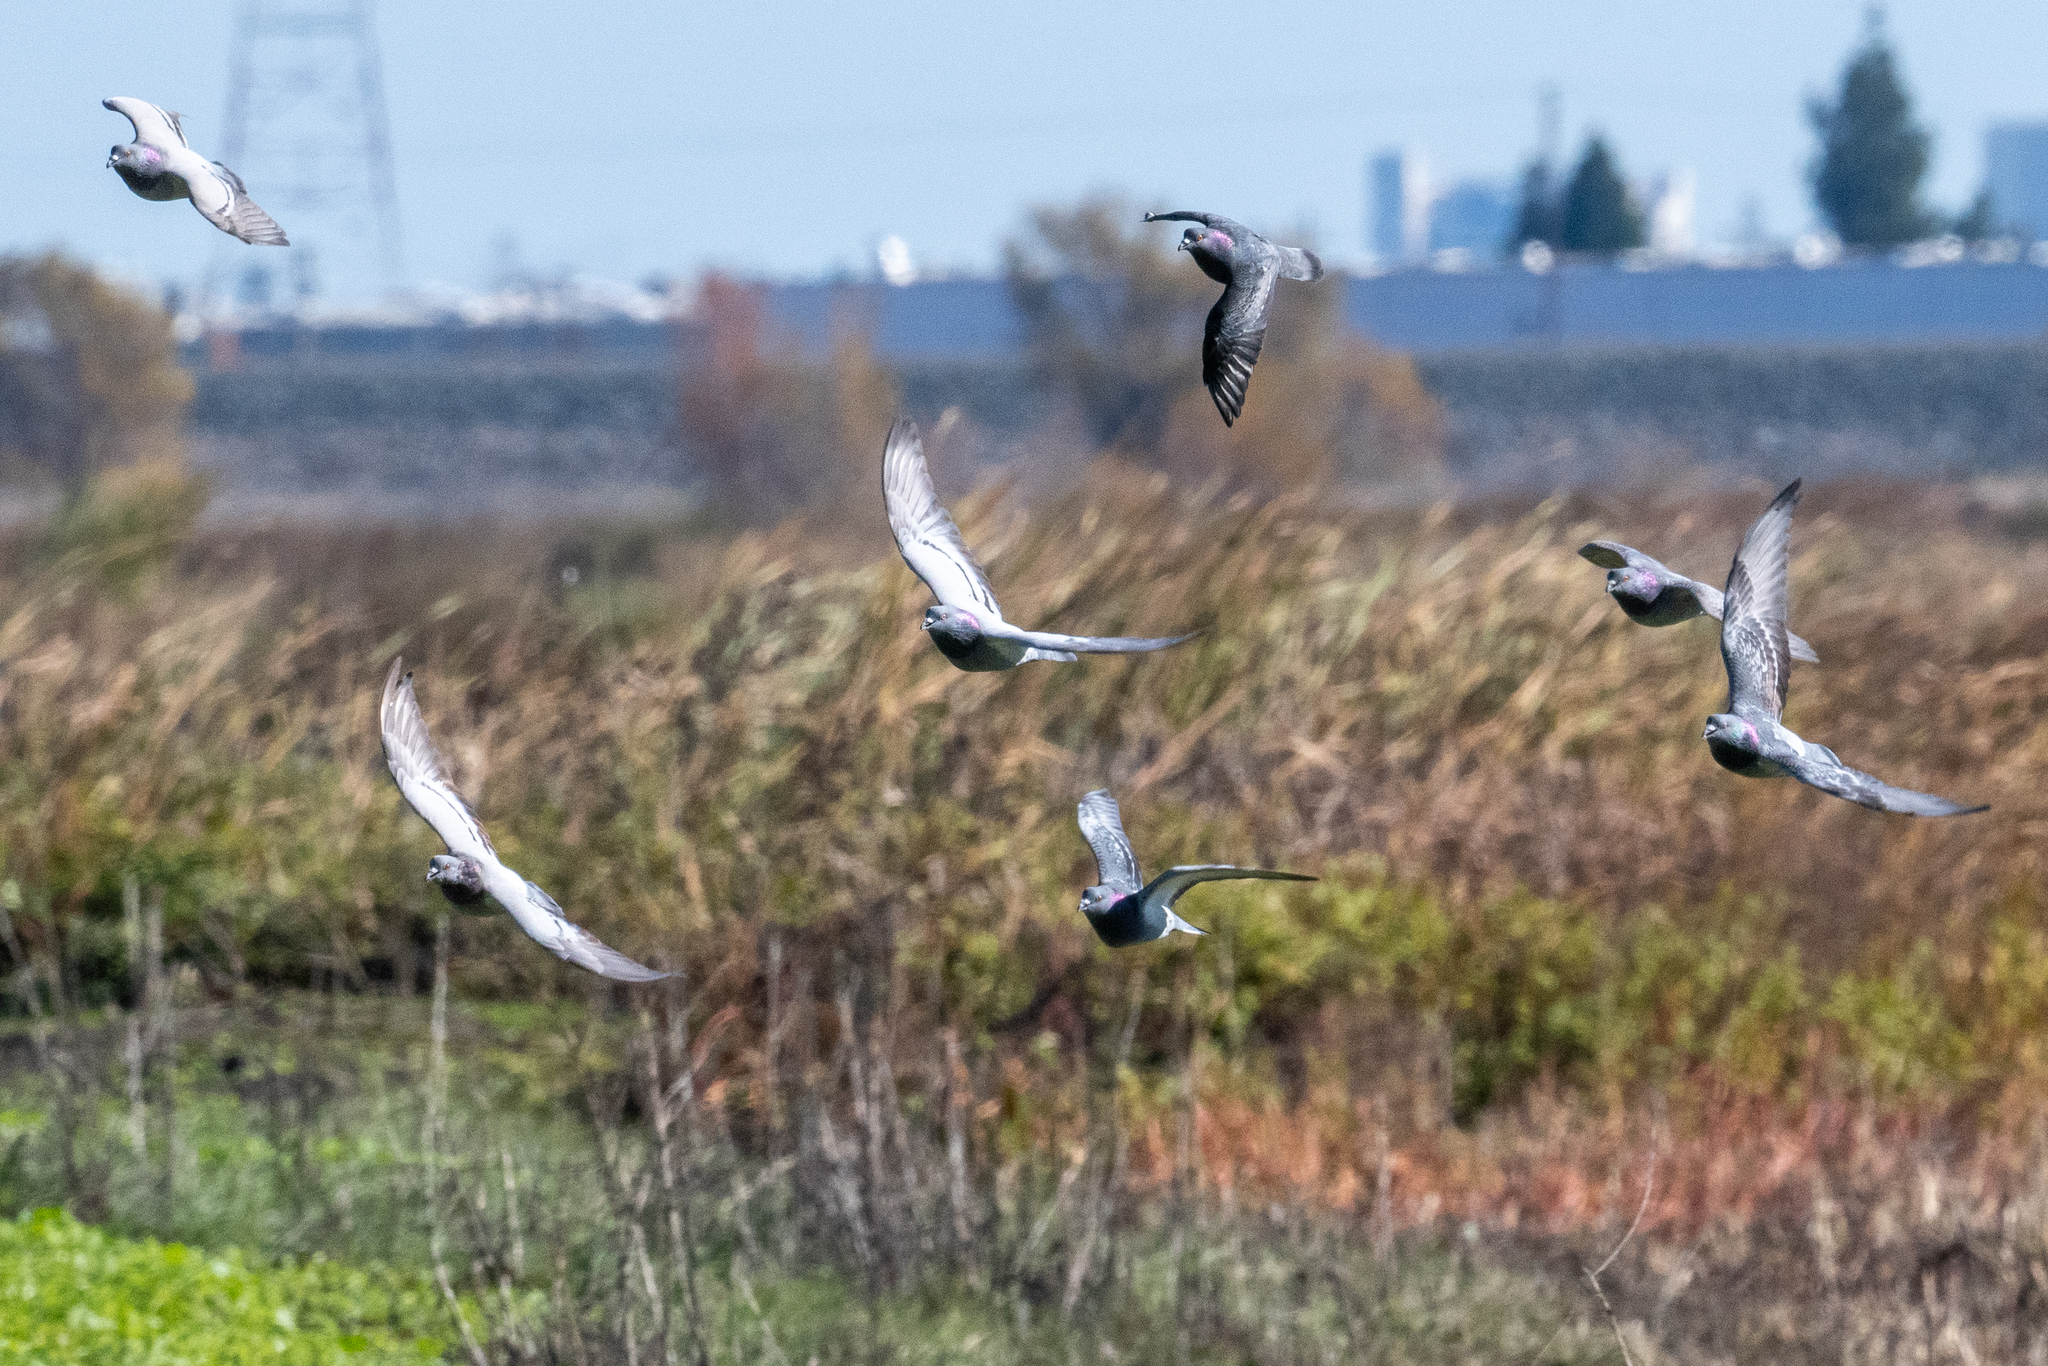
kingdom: Animalia
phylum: Chordata
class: Aves
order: Columbiformes
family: Columbidae
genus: Columba
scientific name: Columba livia
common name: Rock pigeon
